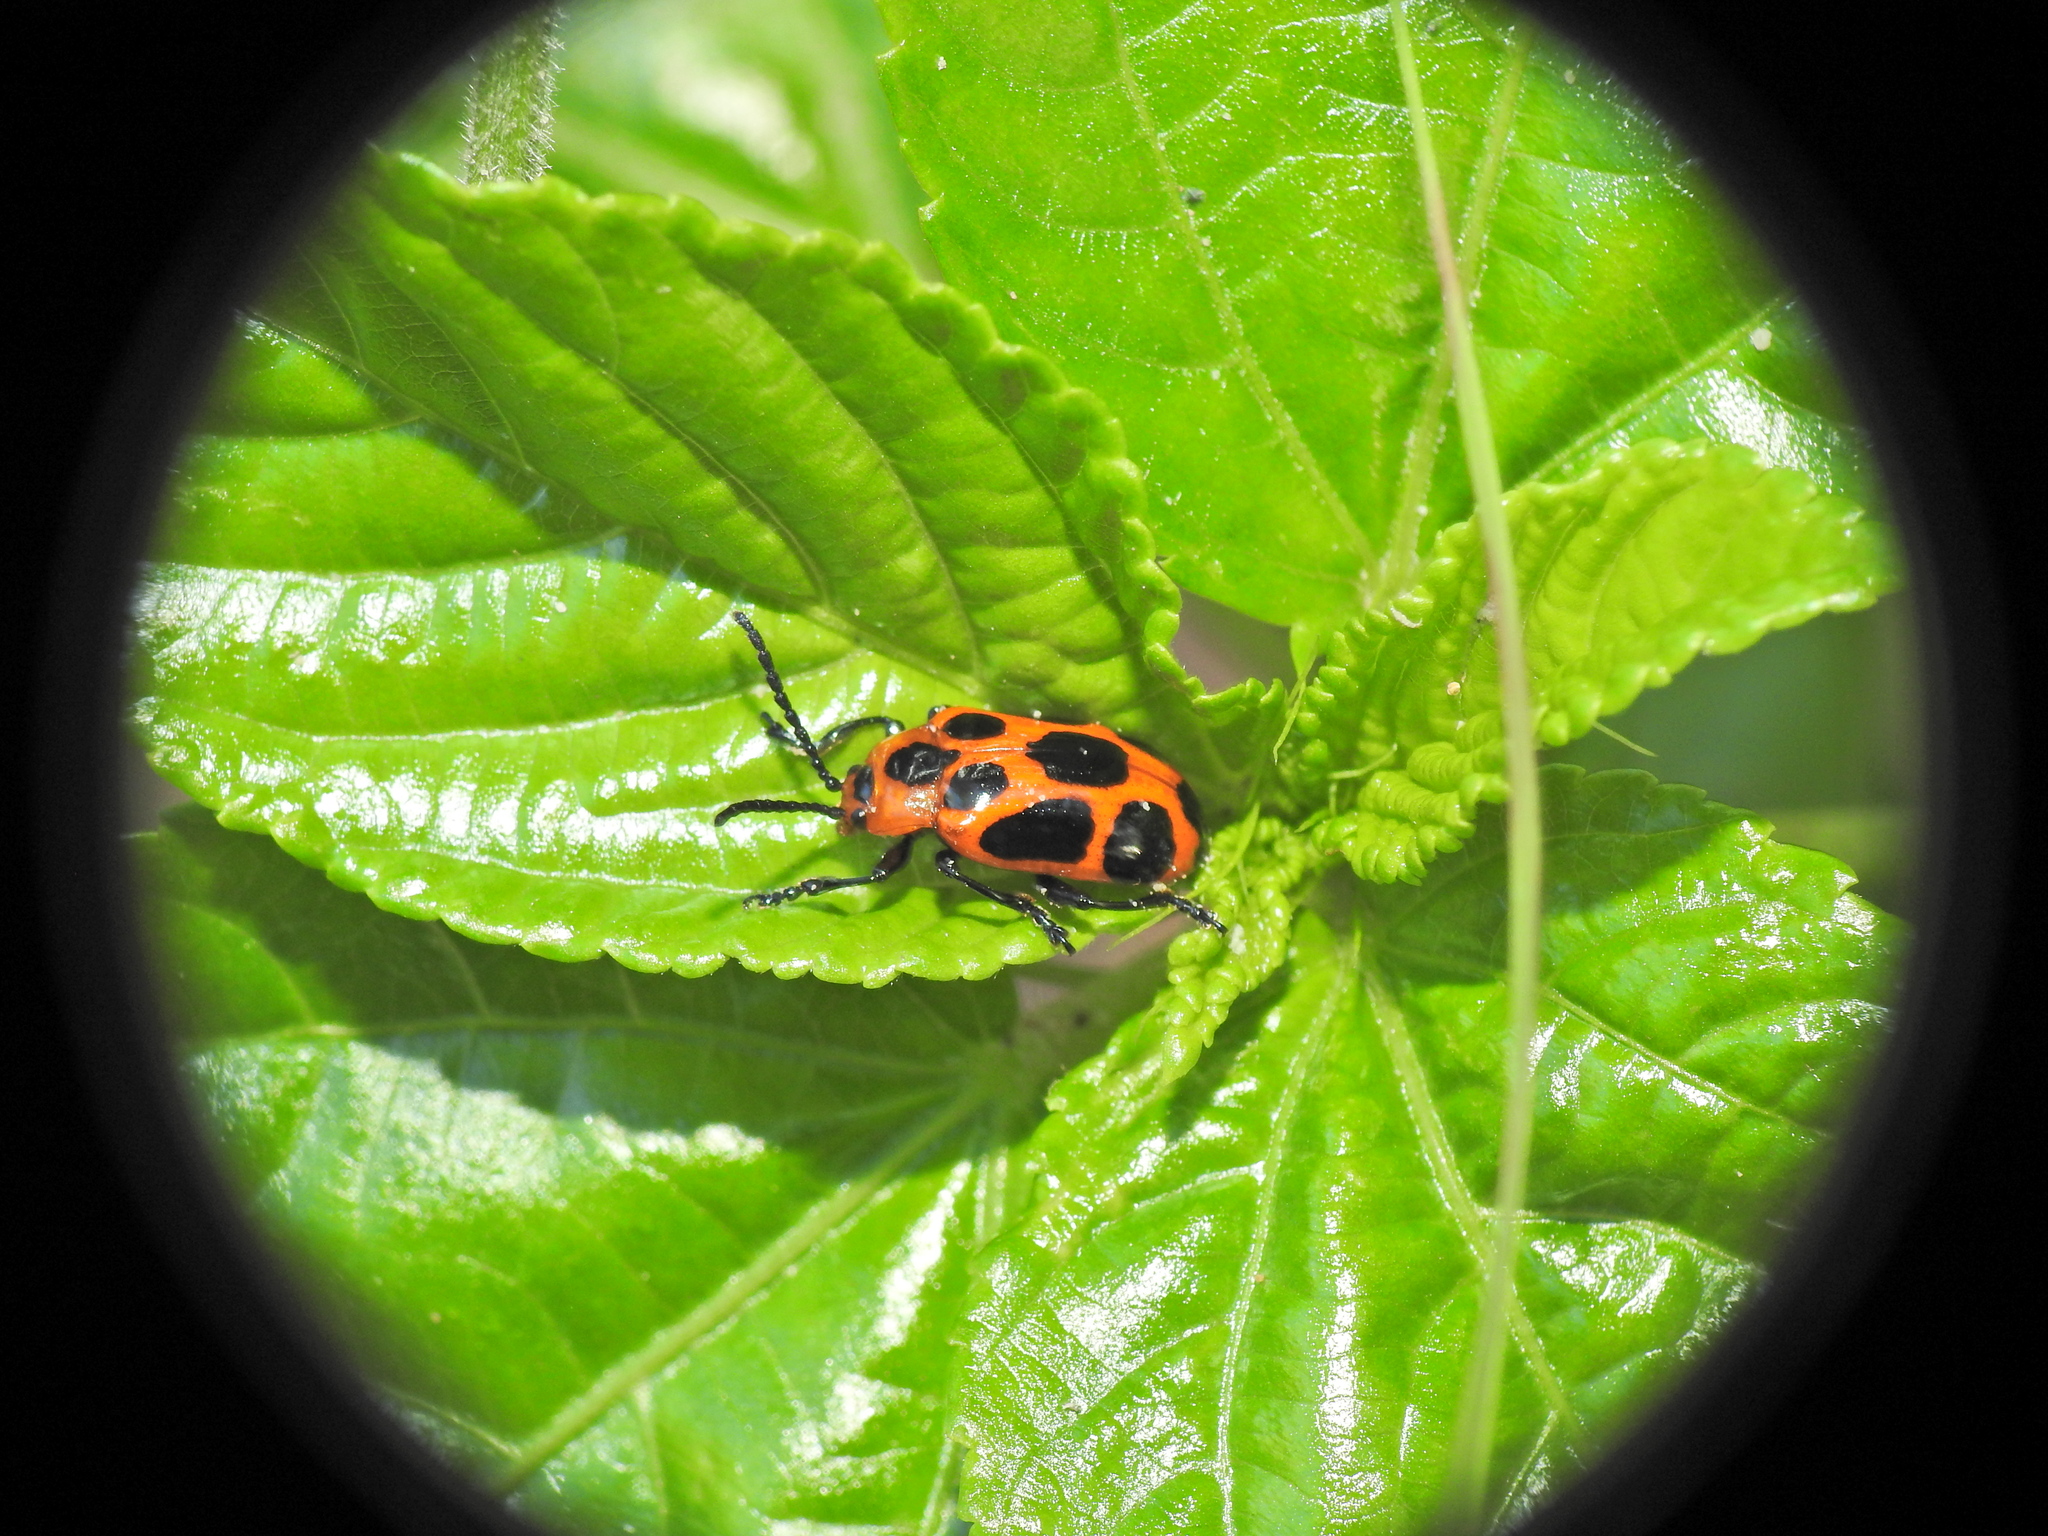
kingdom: Animalia
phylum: Arthropoda
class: Insecta
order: Coleoptera
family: Chrysomelidae
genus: Phyllocharis
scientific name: Phyllocharis
